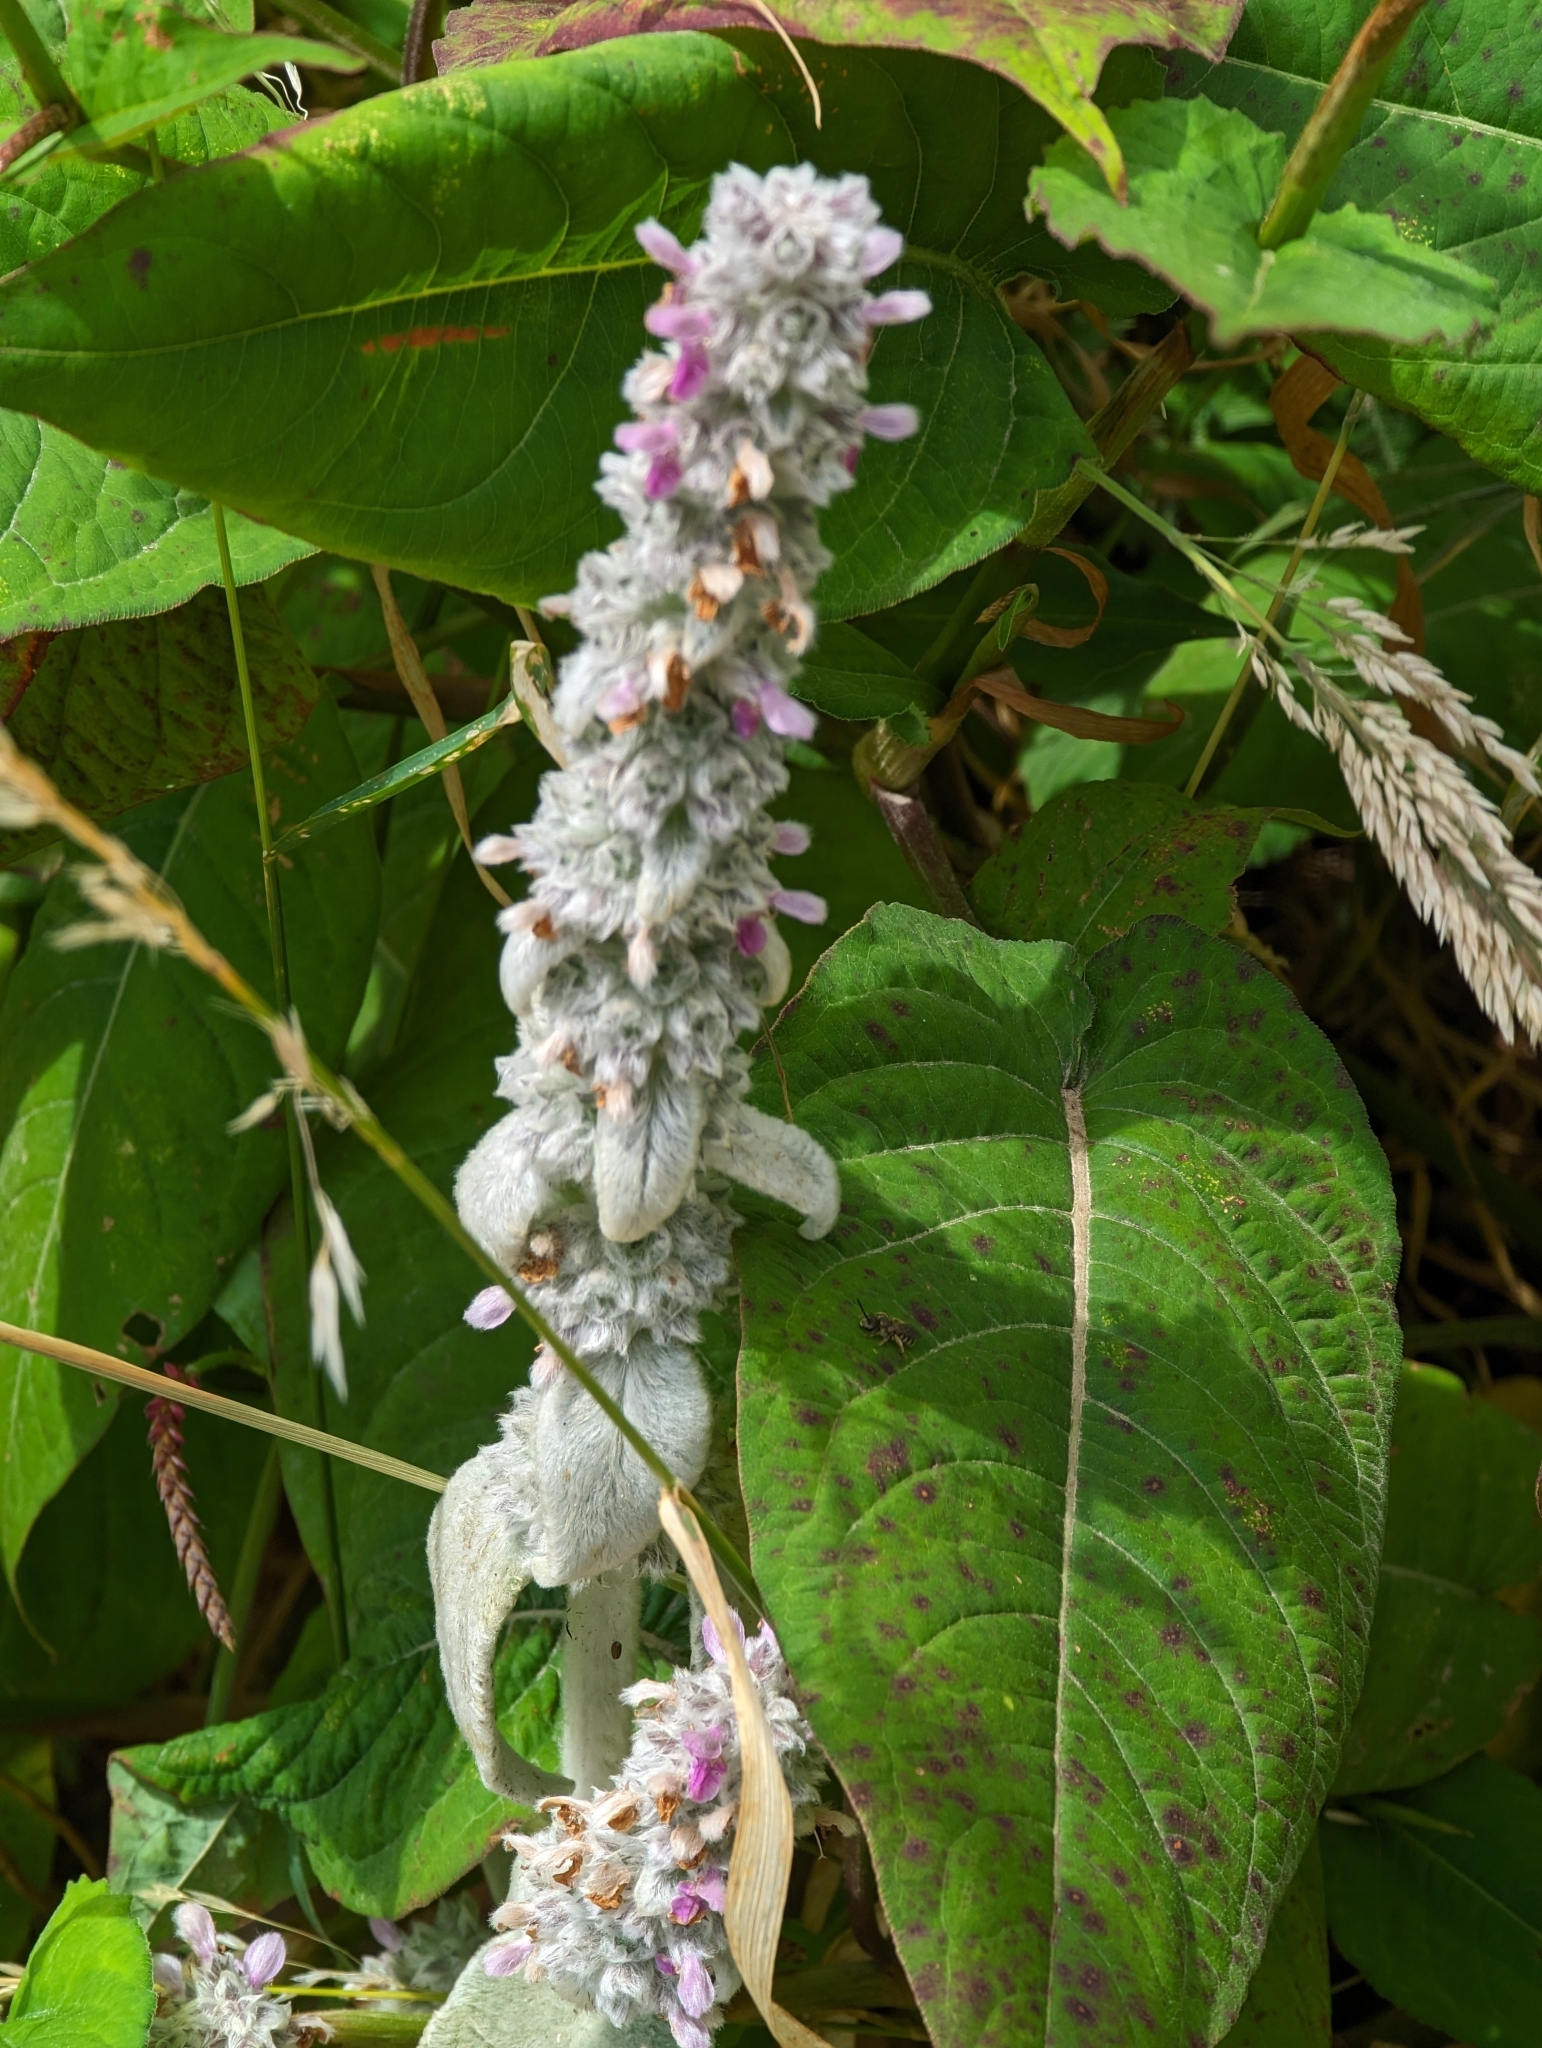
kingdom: Plantae
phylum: Tracheophyta
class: Magnoliopsida
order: Lamiales
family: Lamiaceae
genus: Stachys
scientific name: Stachys byzantina
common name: Lamb's-ear
